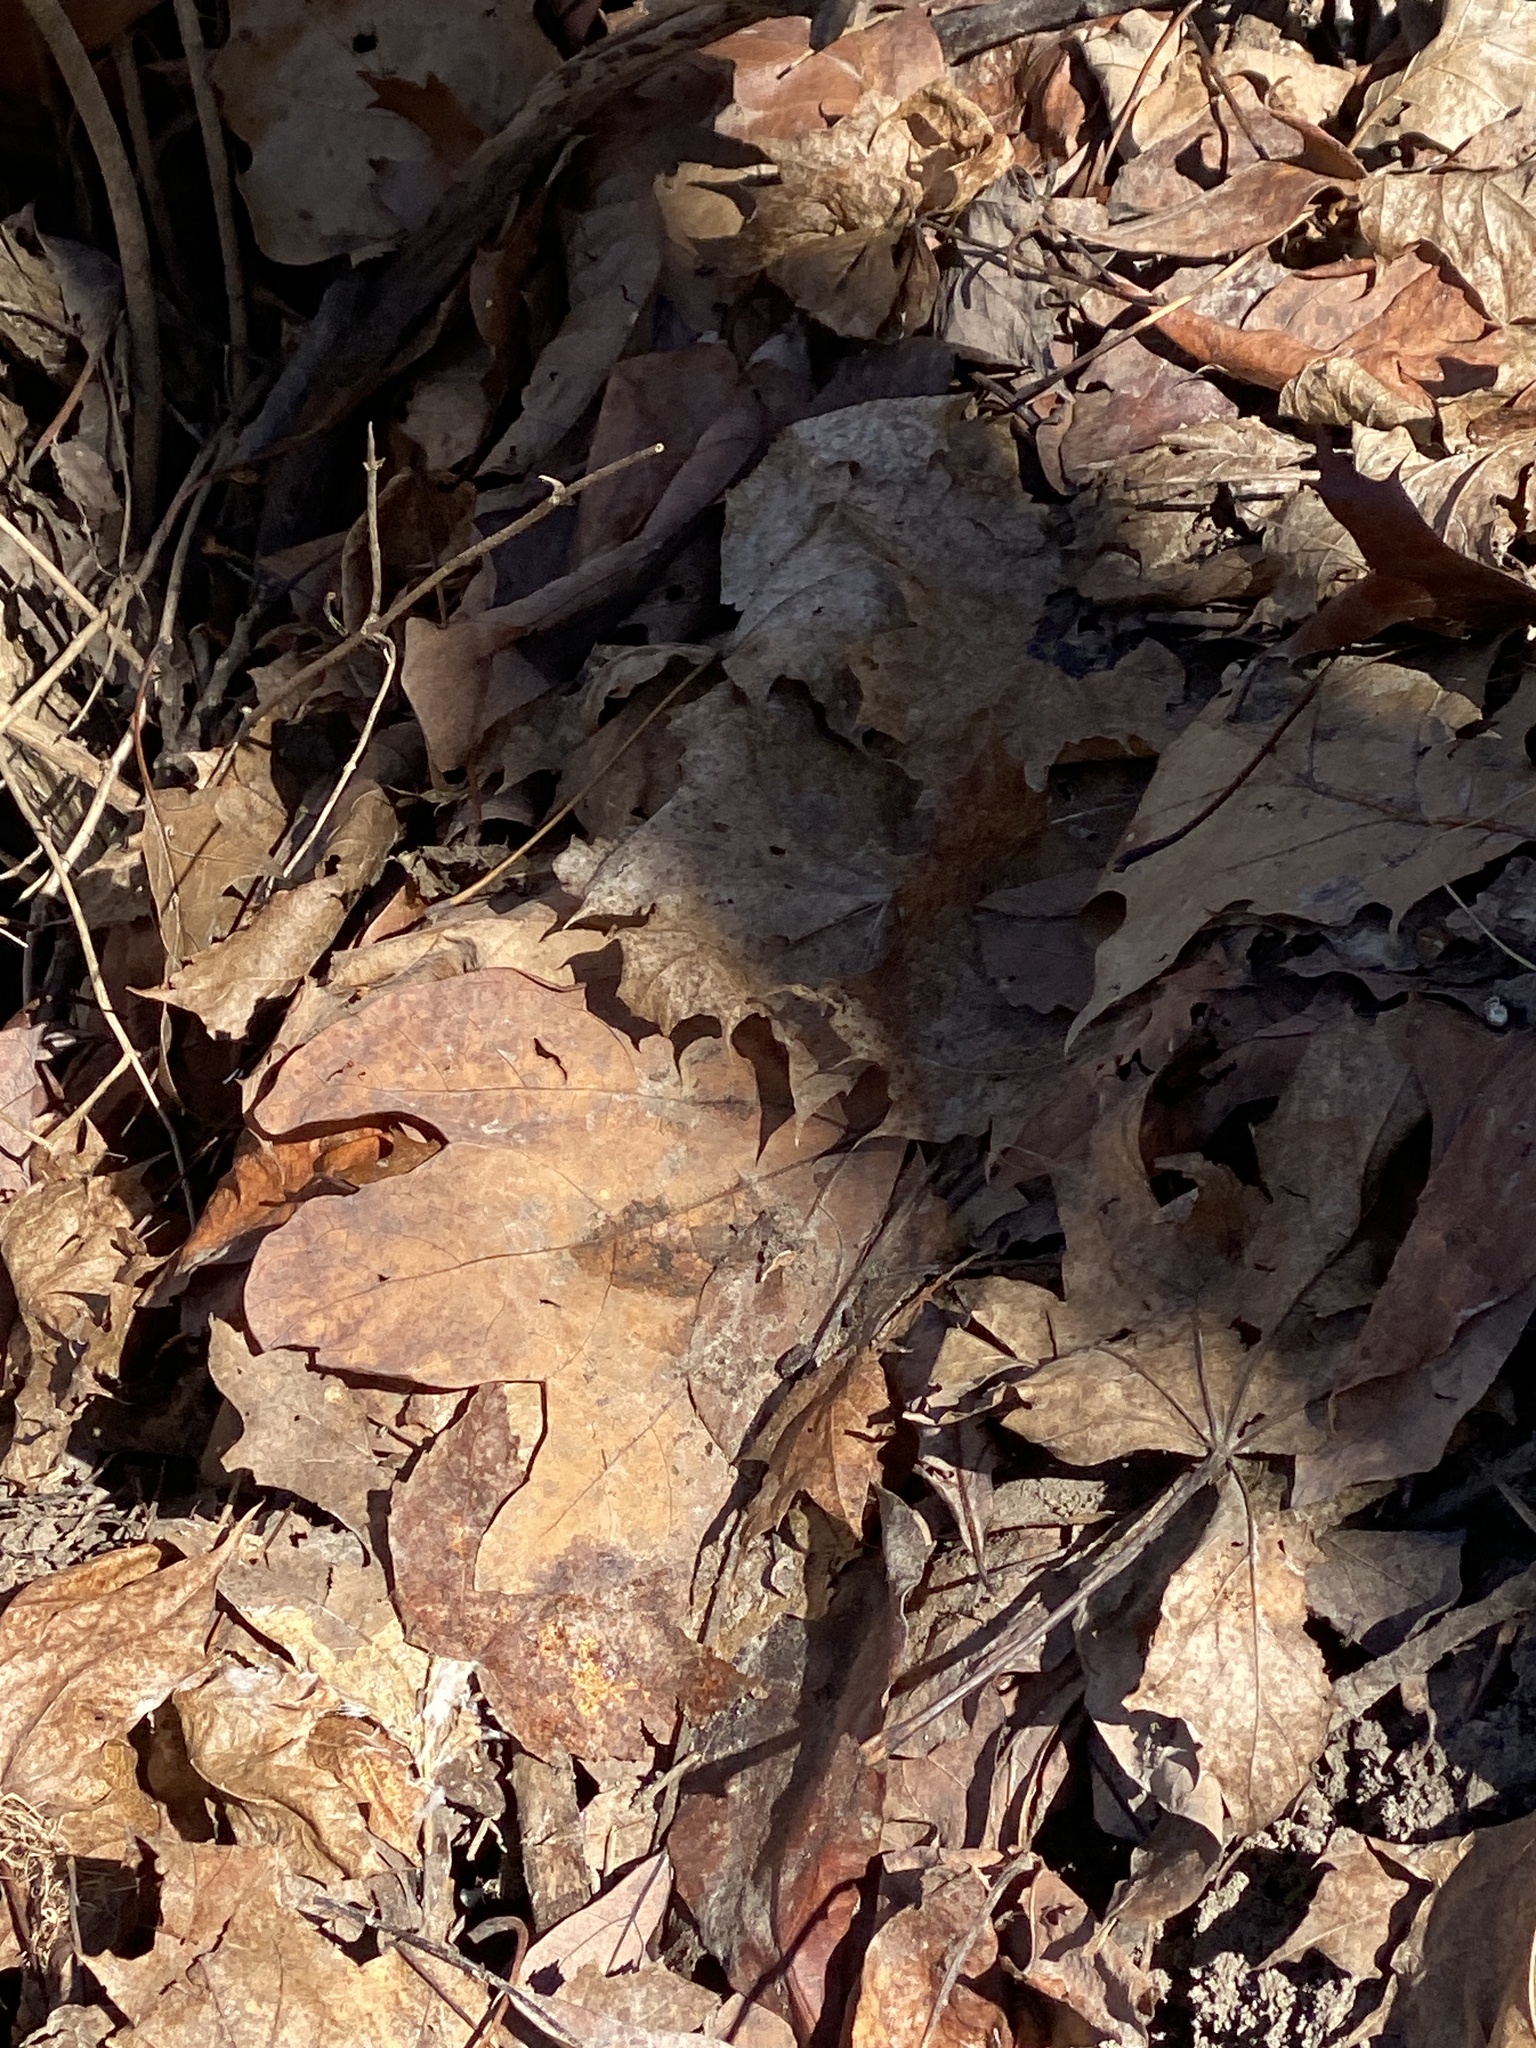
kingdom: Plantae
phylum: Tracheophyta
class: Magnoliopsida
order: Laurales
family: Lauraceae
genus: Sassafras
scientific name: Sassafras albidum
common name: Sassafras
